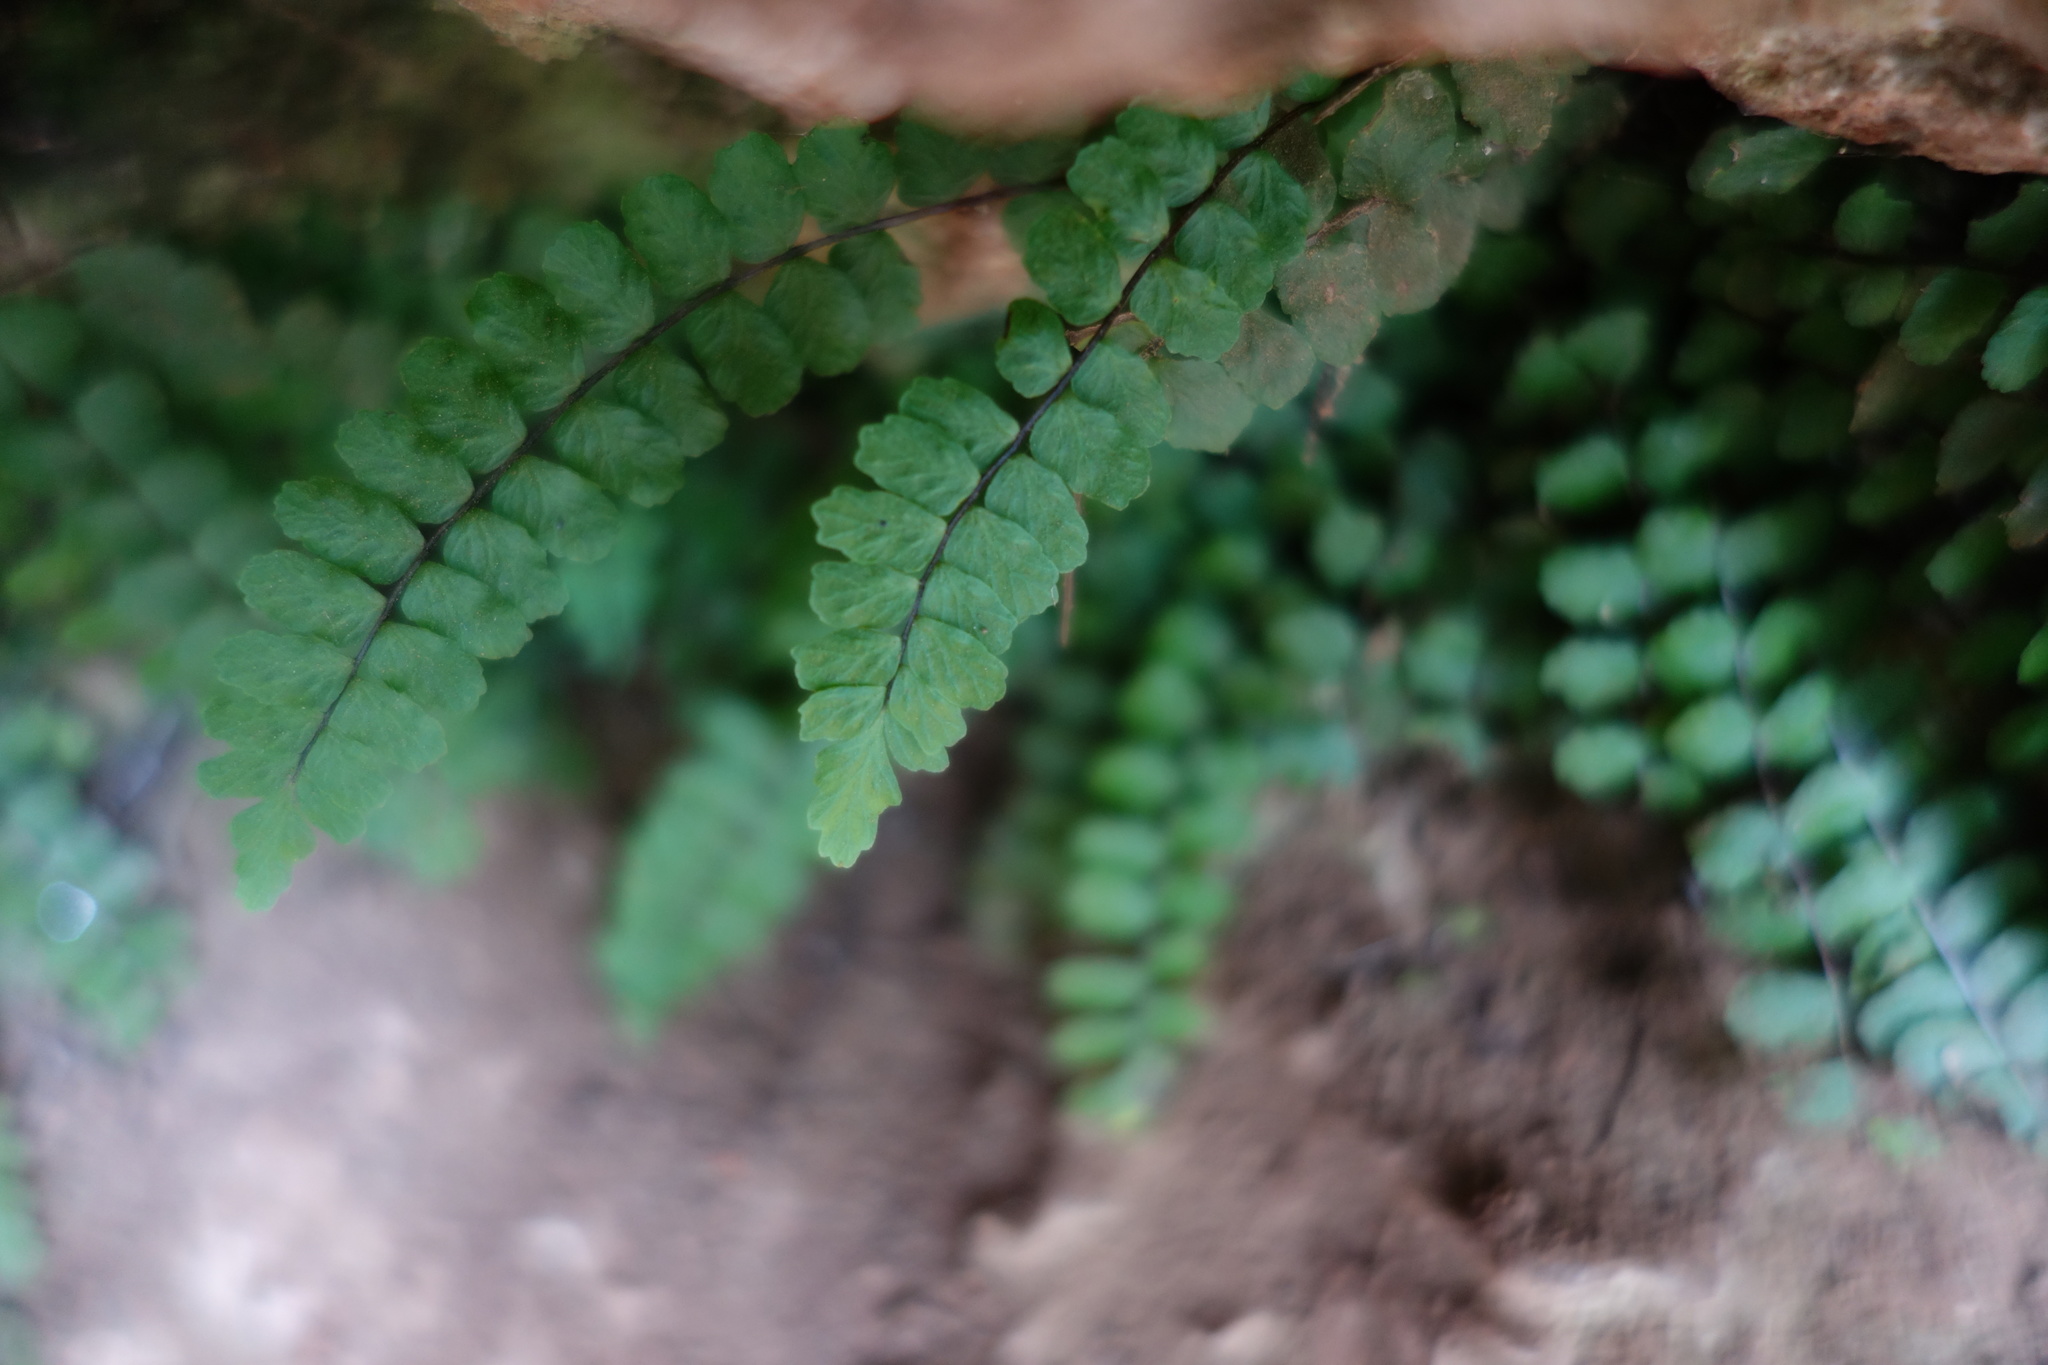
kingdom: Plantae
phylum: Tracheophyta
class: Polypodiopsida
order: Polypodiales
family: Aspleniaceae
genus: Asplenium
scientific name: Asplenium trichomanes
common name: Maidenhair spleenwort
